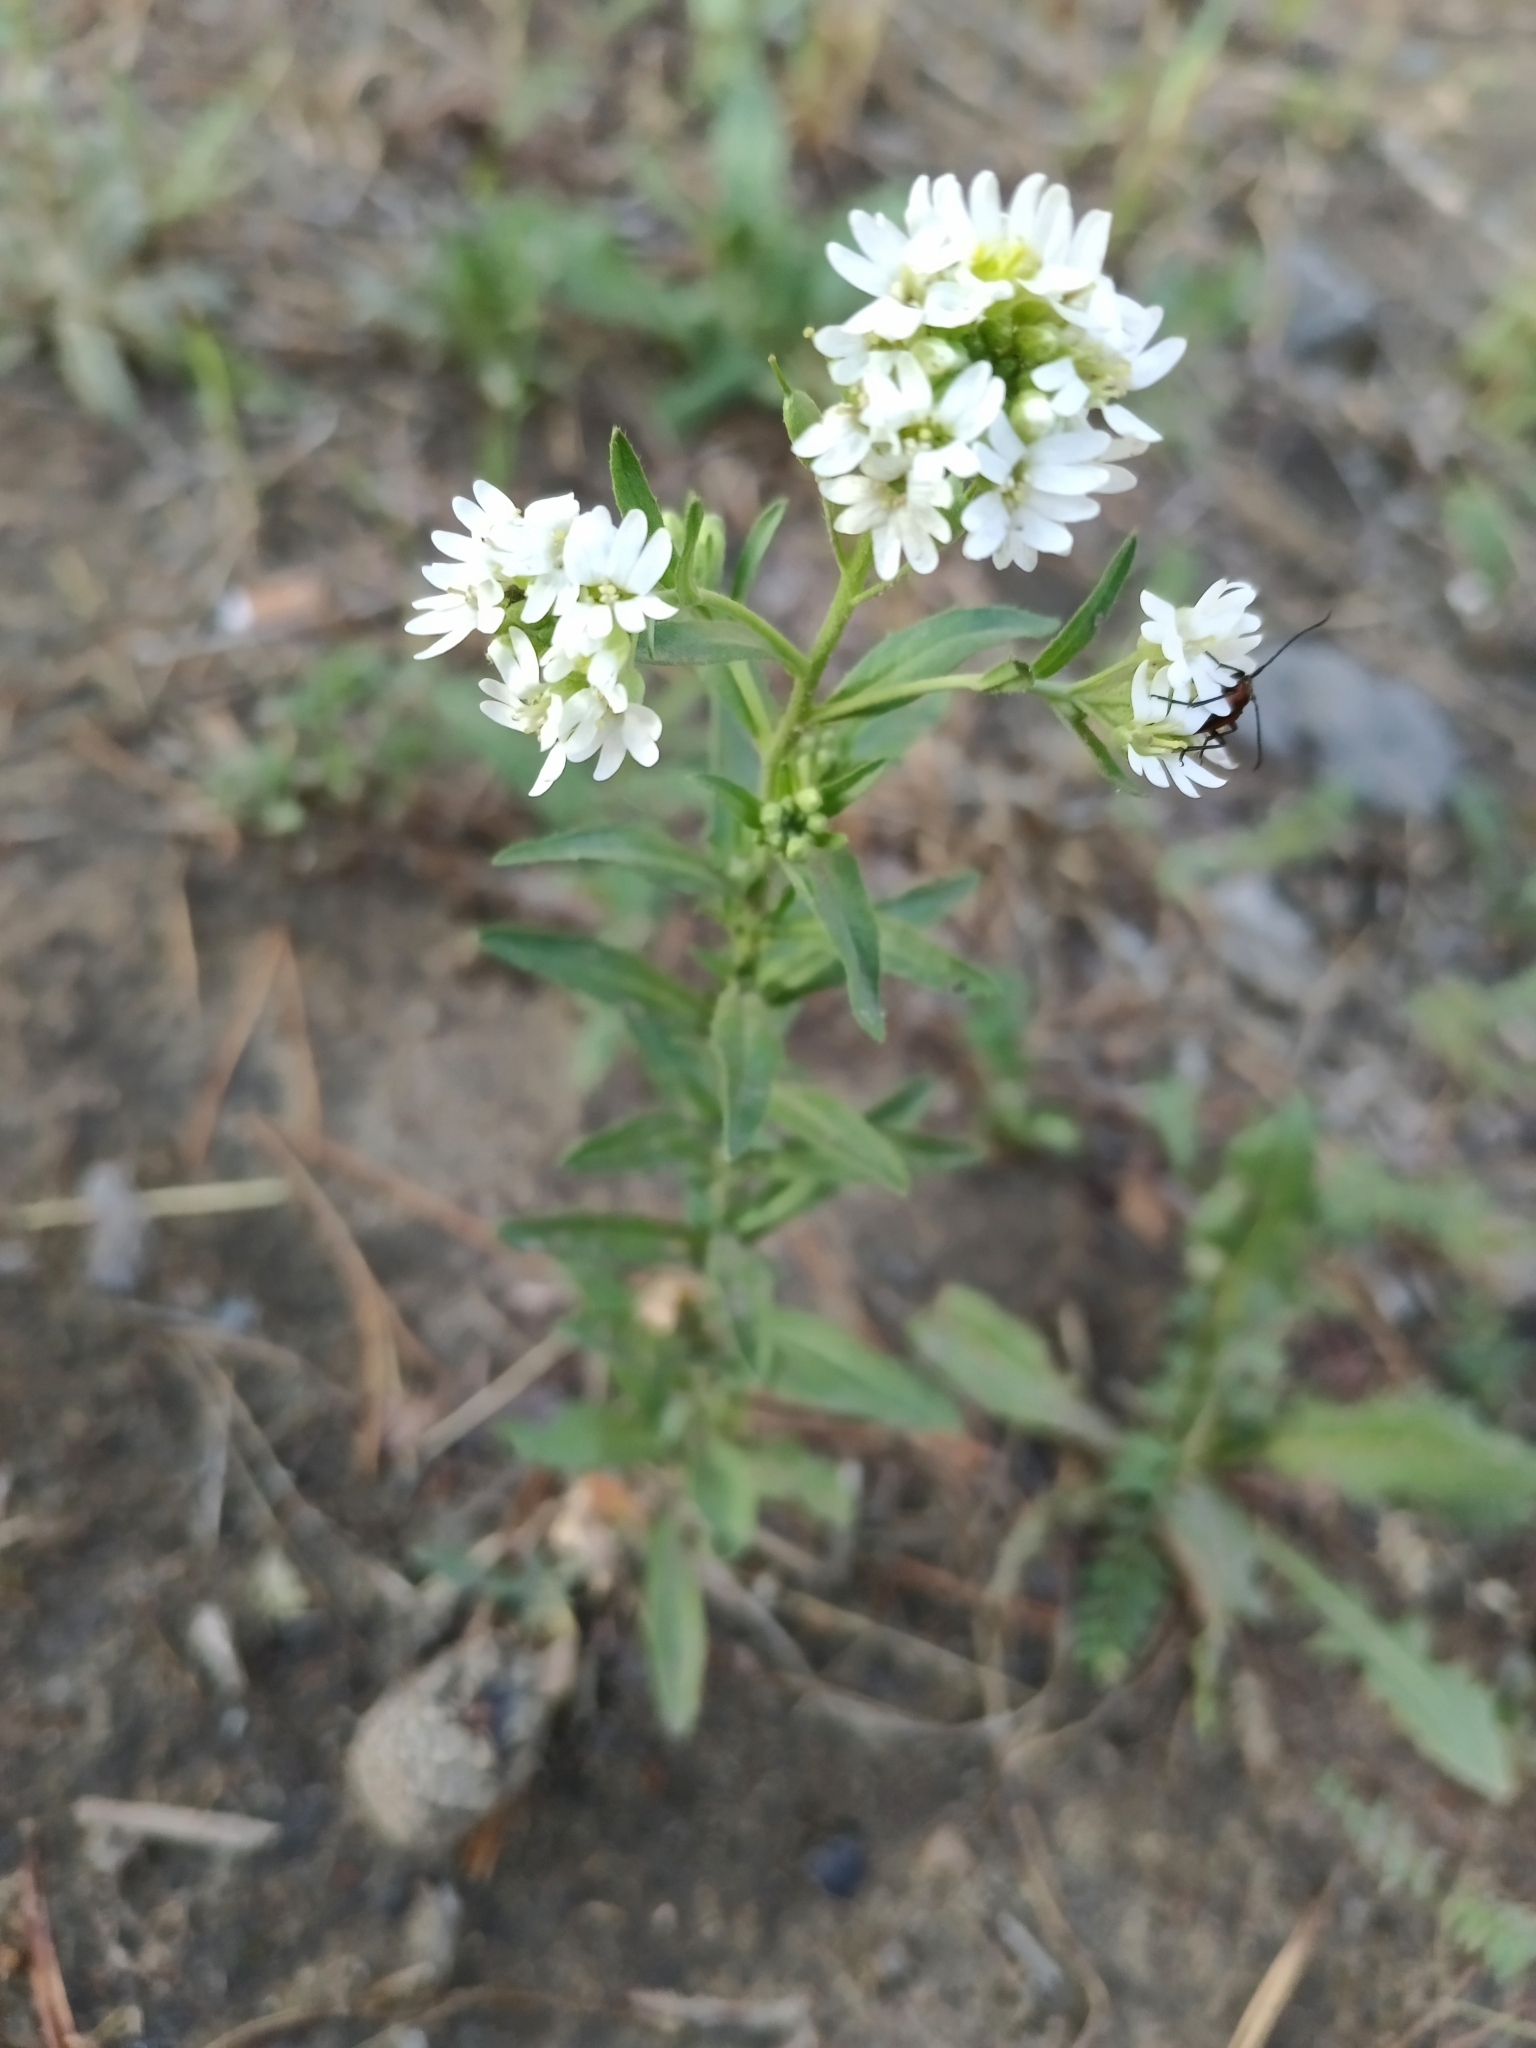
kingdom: Plantae
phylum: Tracheophyta
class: Magnoliopsida
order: Brassicales
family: Brassicaceae
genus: Berteroa
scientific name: Berteroa incana
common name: Hoary alison
